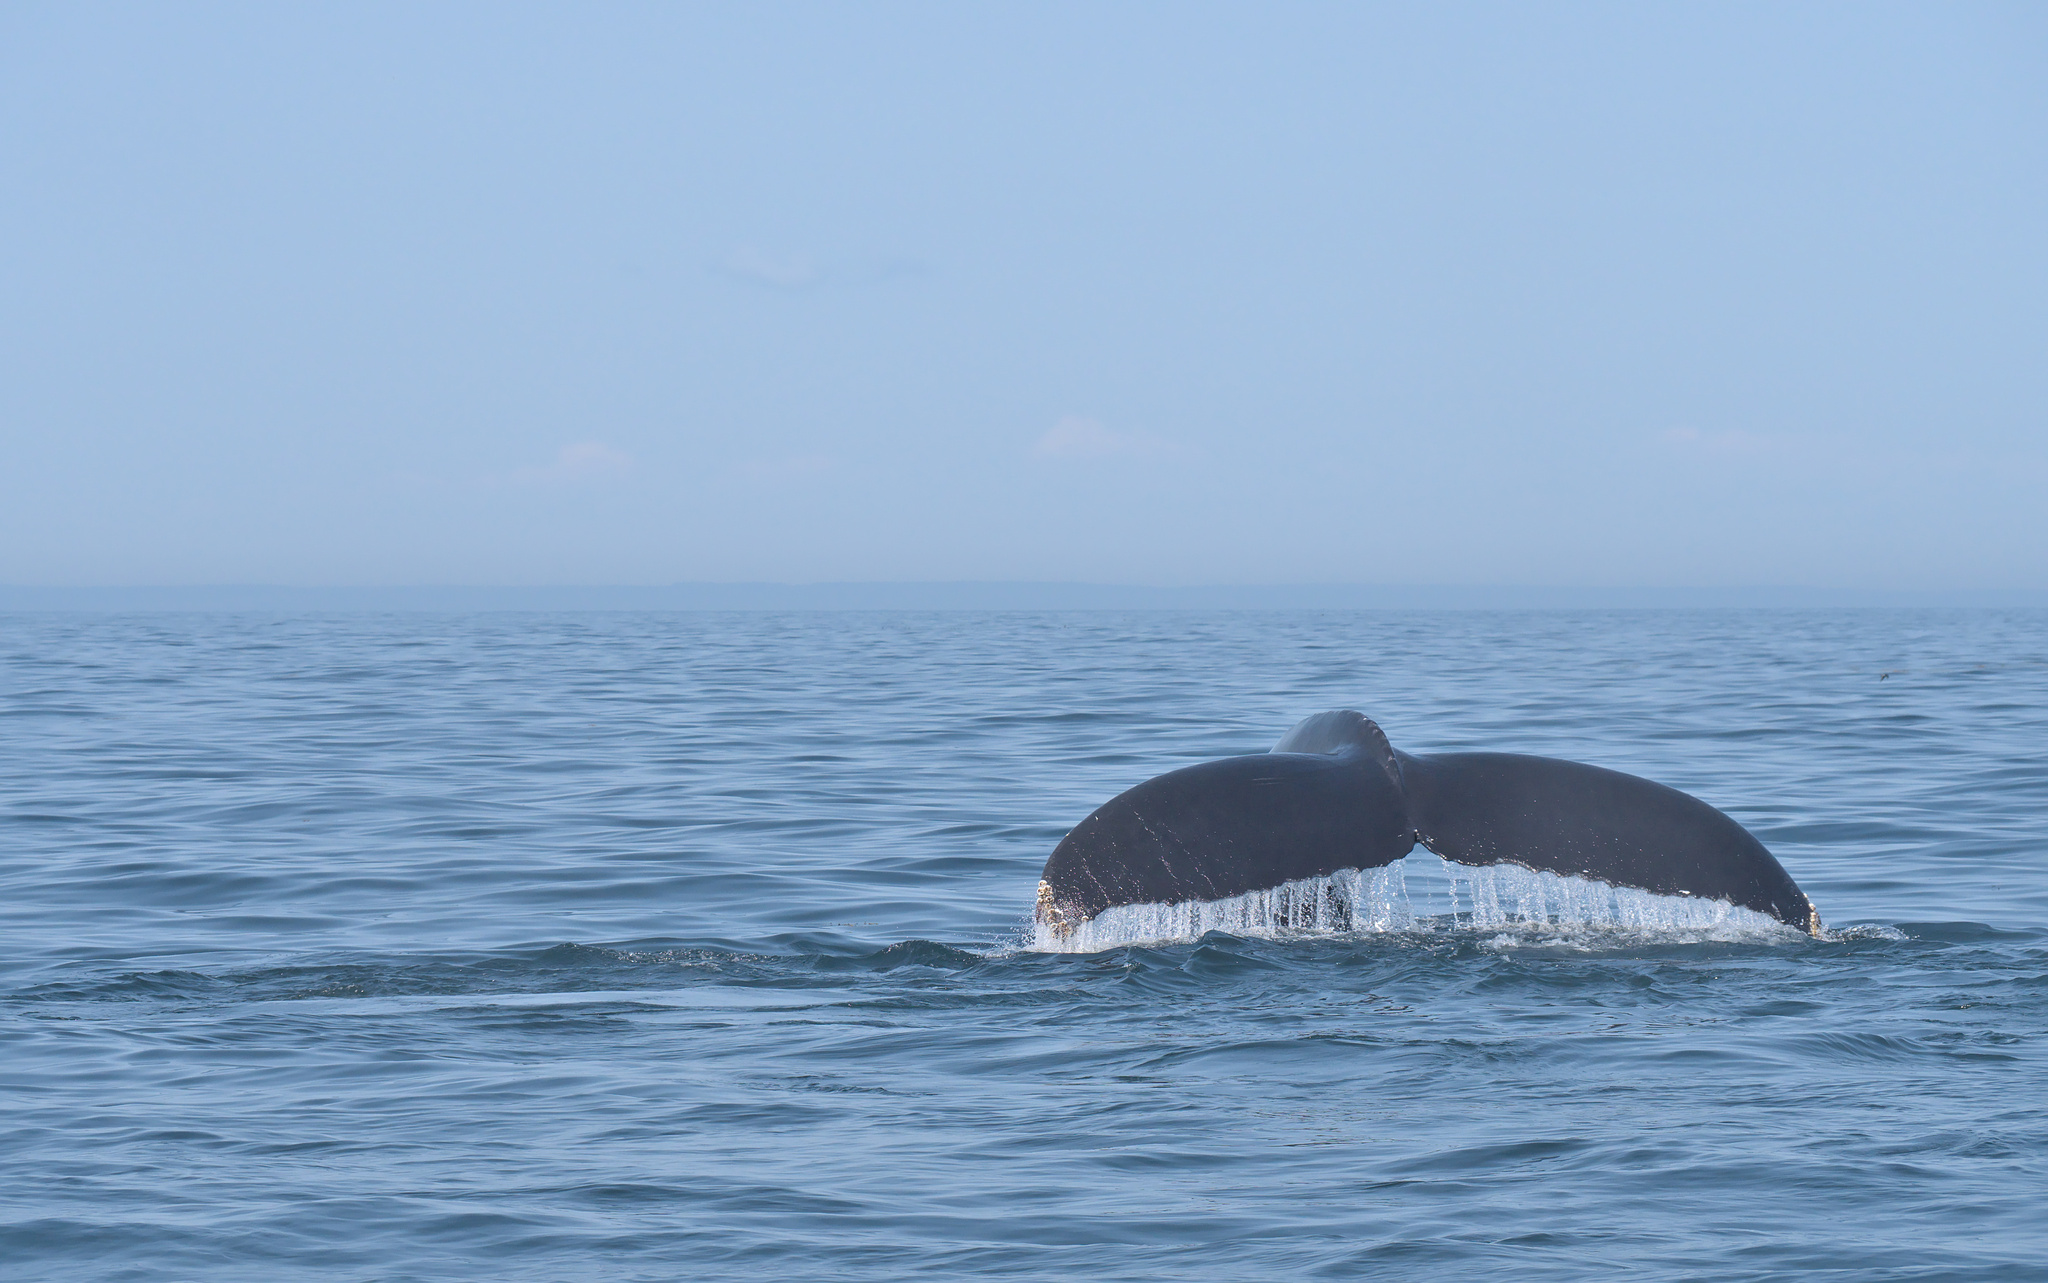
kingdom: Animalia
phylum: Chordata
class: Mammalia
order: Cetacea
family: Balaenopteridae
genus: Megaptera
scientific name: Megaptera novaeangliae
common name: Humpback whale
